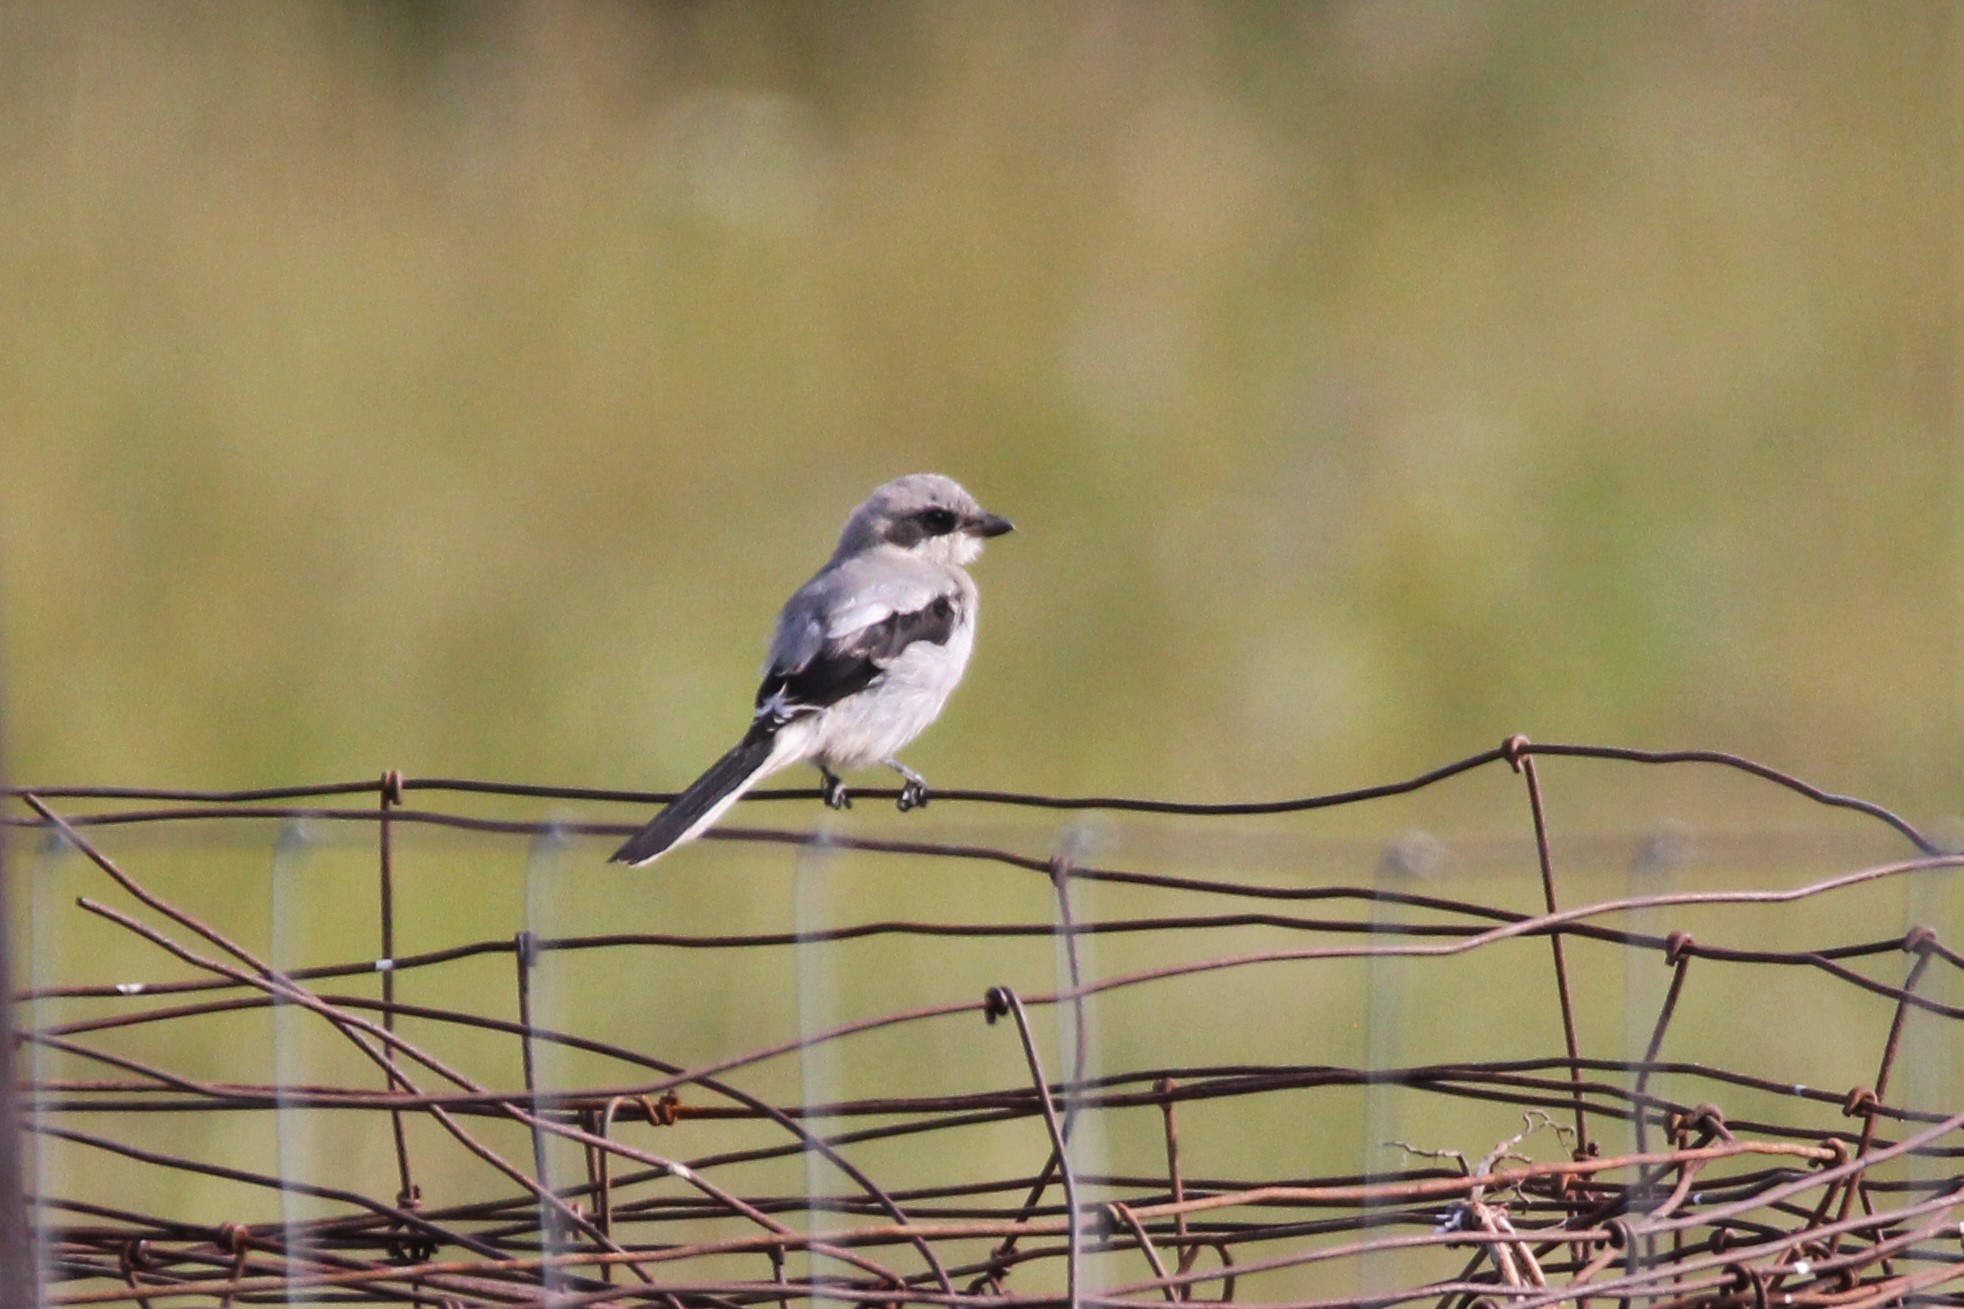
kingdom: Animalia
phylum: Chordata
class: Aves
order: Passeriformes
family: Laniidae
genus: Lanius
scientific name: Lanius ludovicianus
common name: Loggerhead shrike
